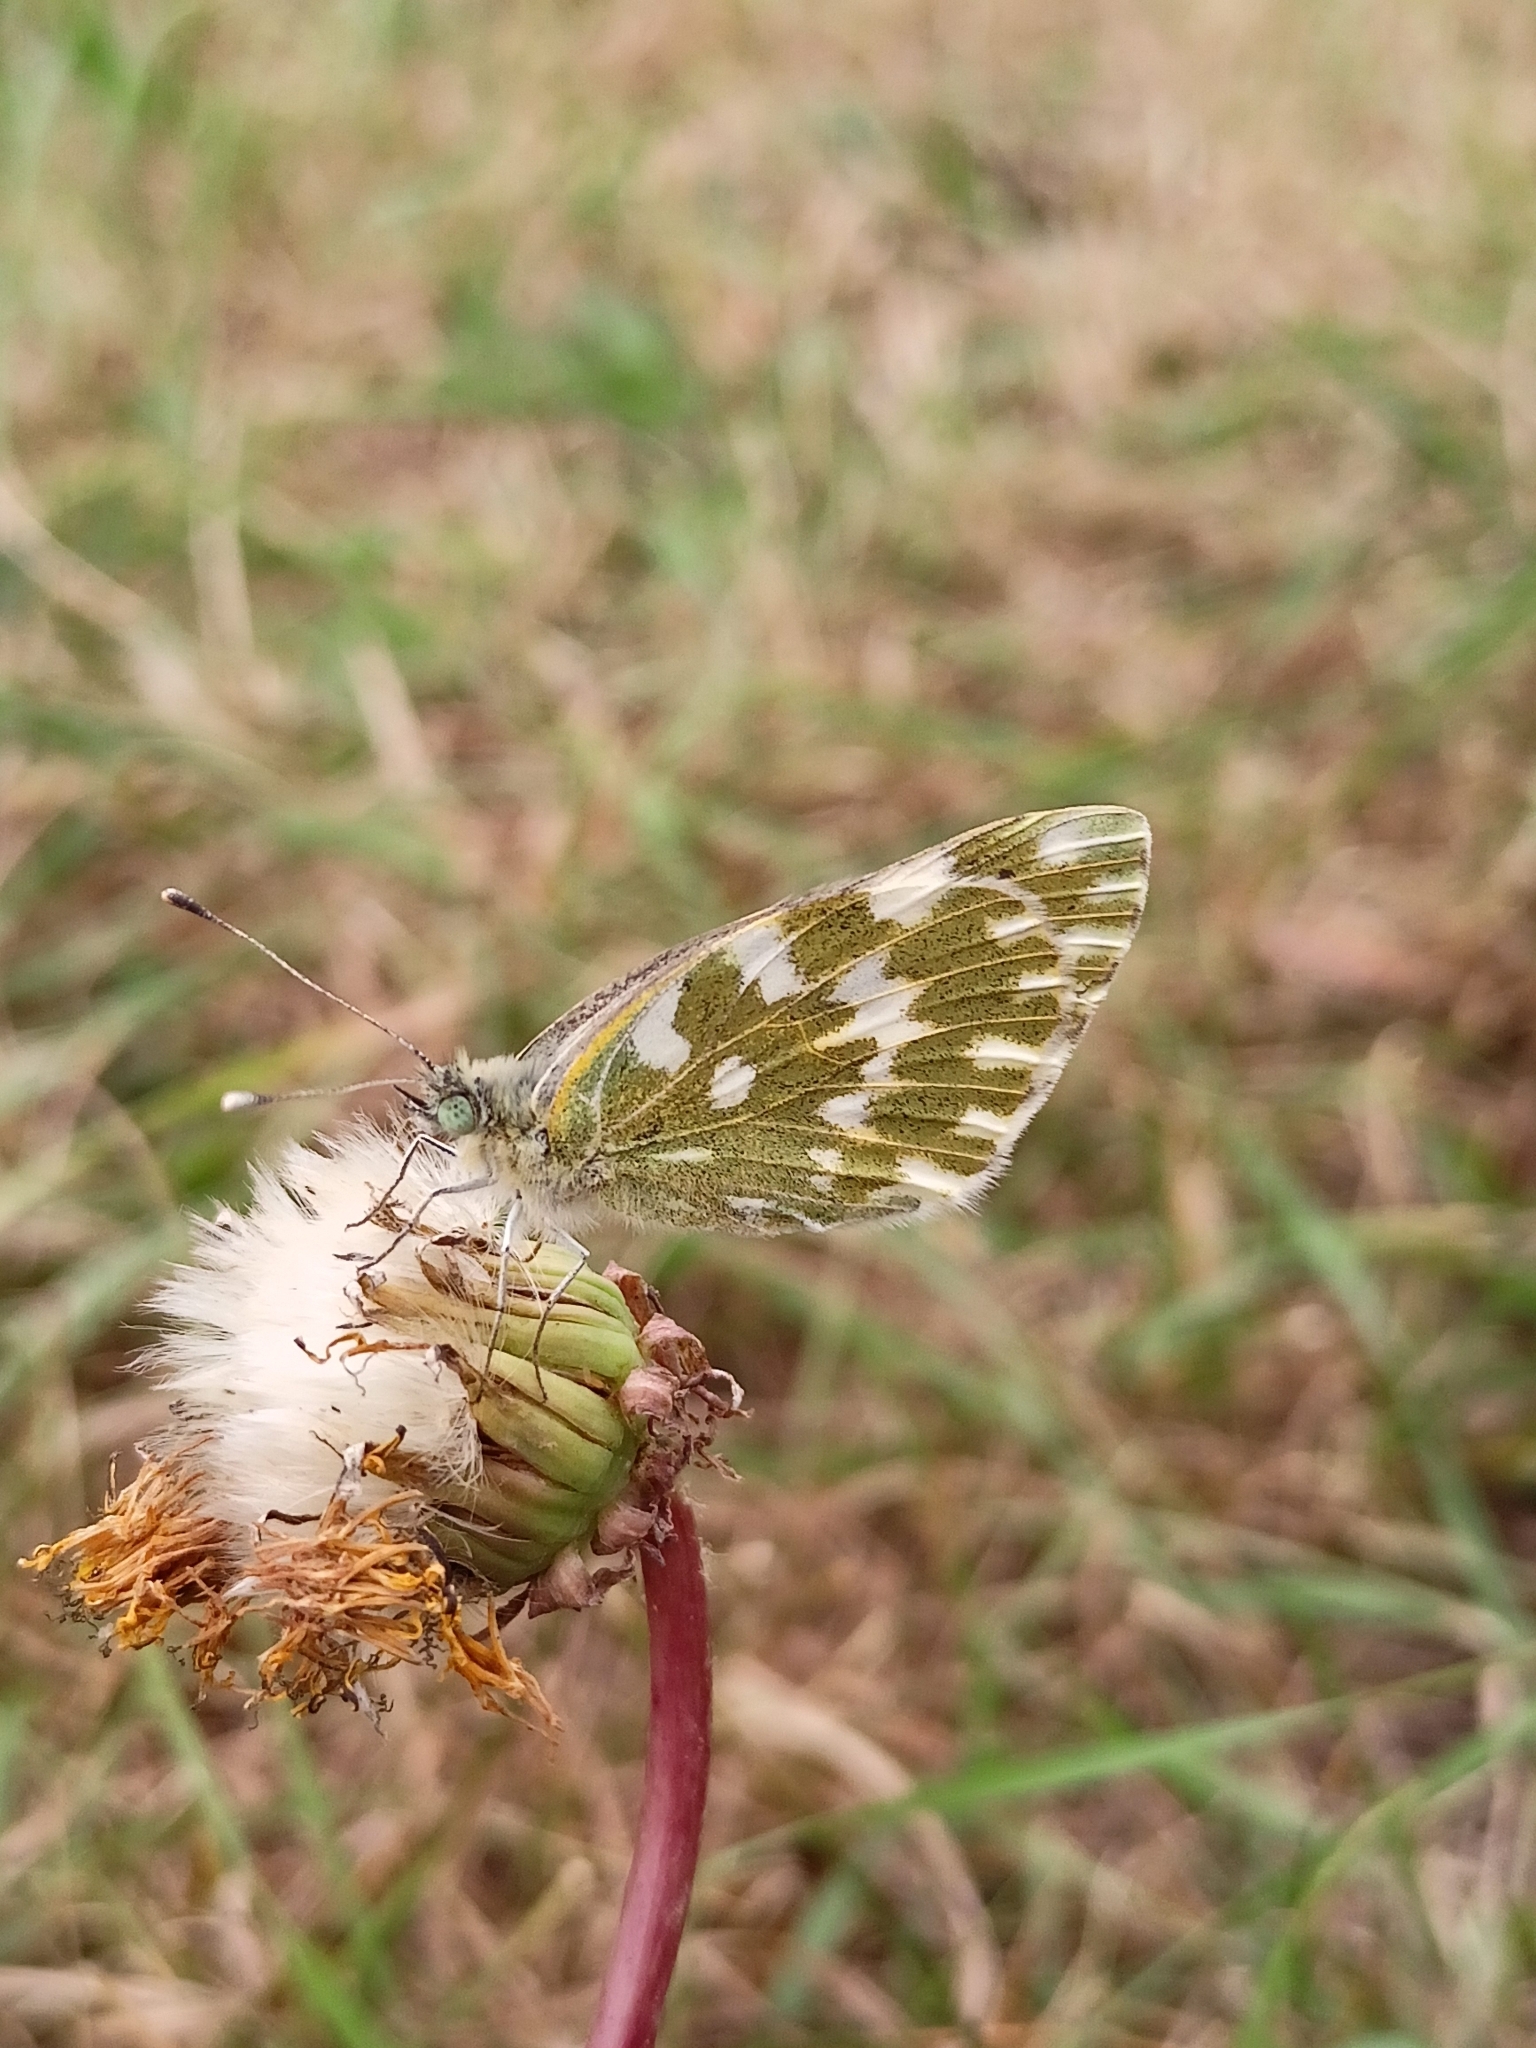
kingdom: Animalia
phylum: Arthropoda
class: Insecta
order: Lepidoptera
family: Pieridae
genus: Pontia
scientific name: Pontia edusa
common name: Eastern bath white
